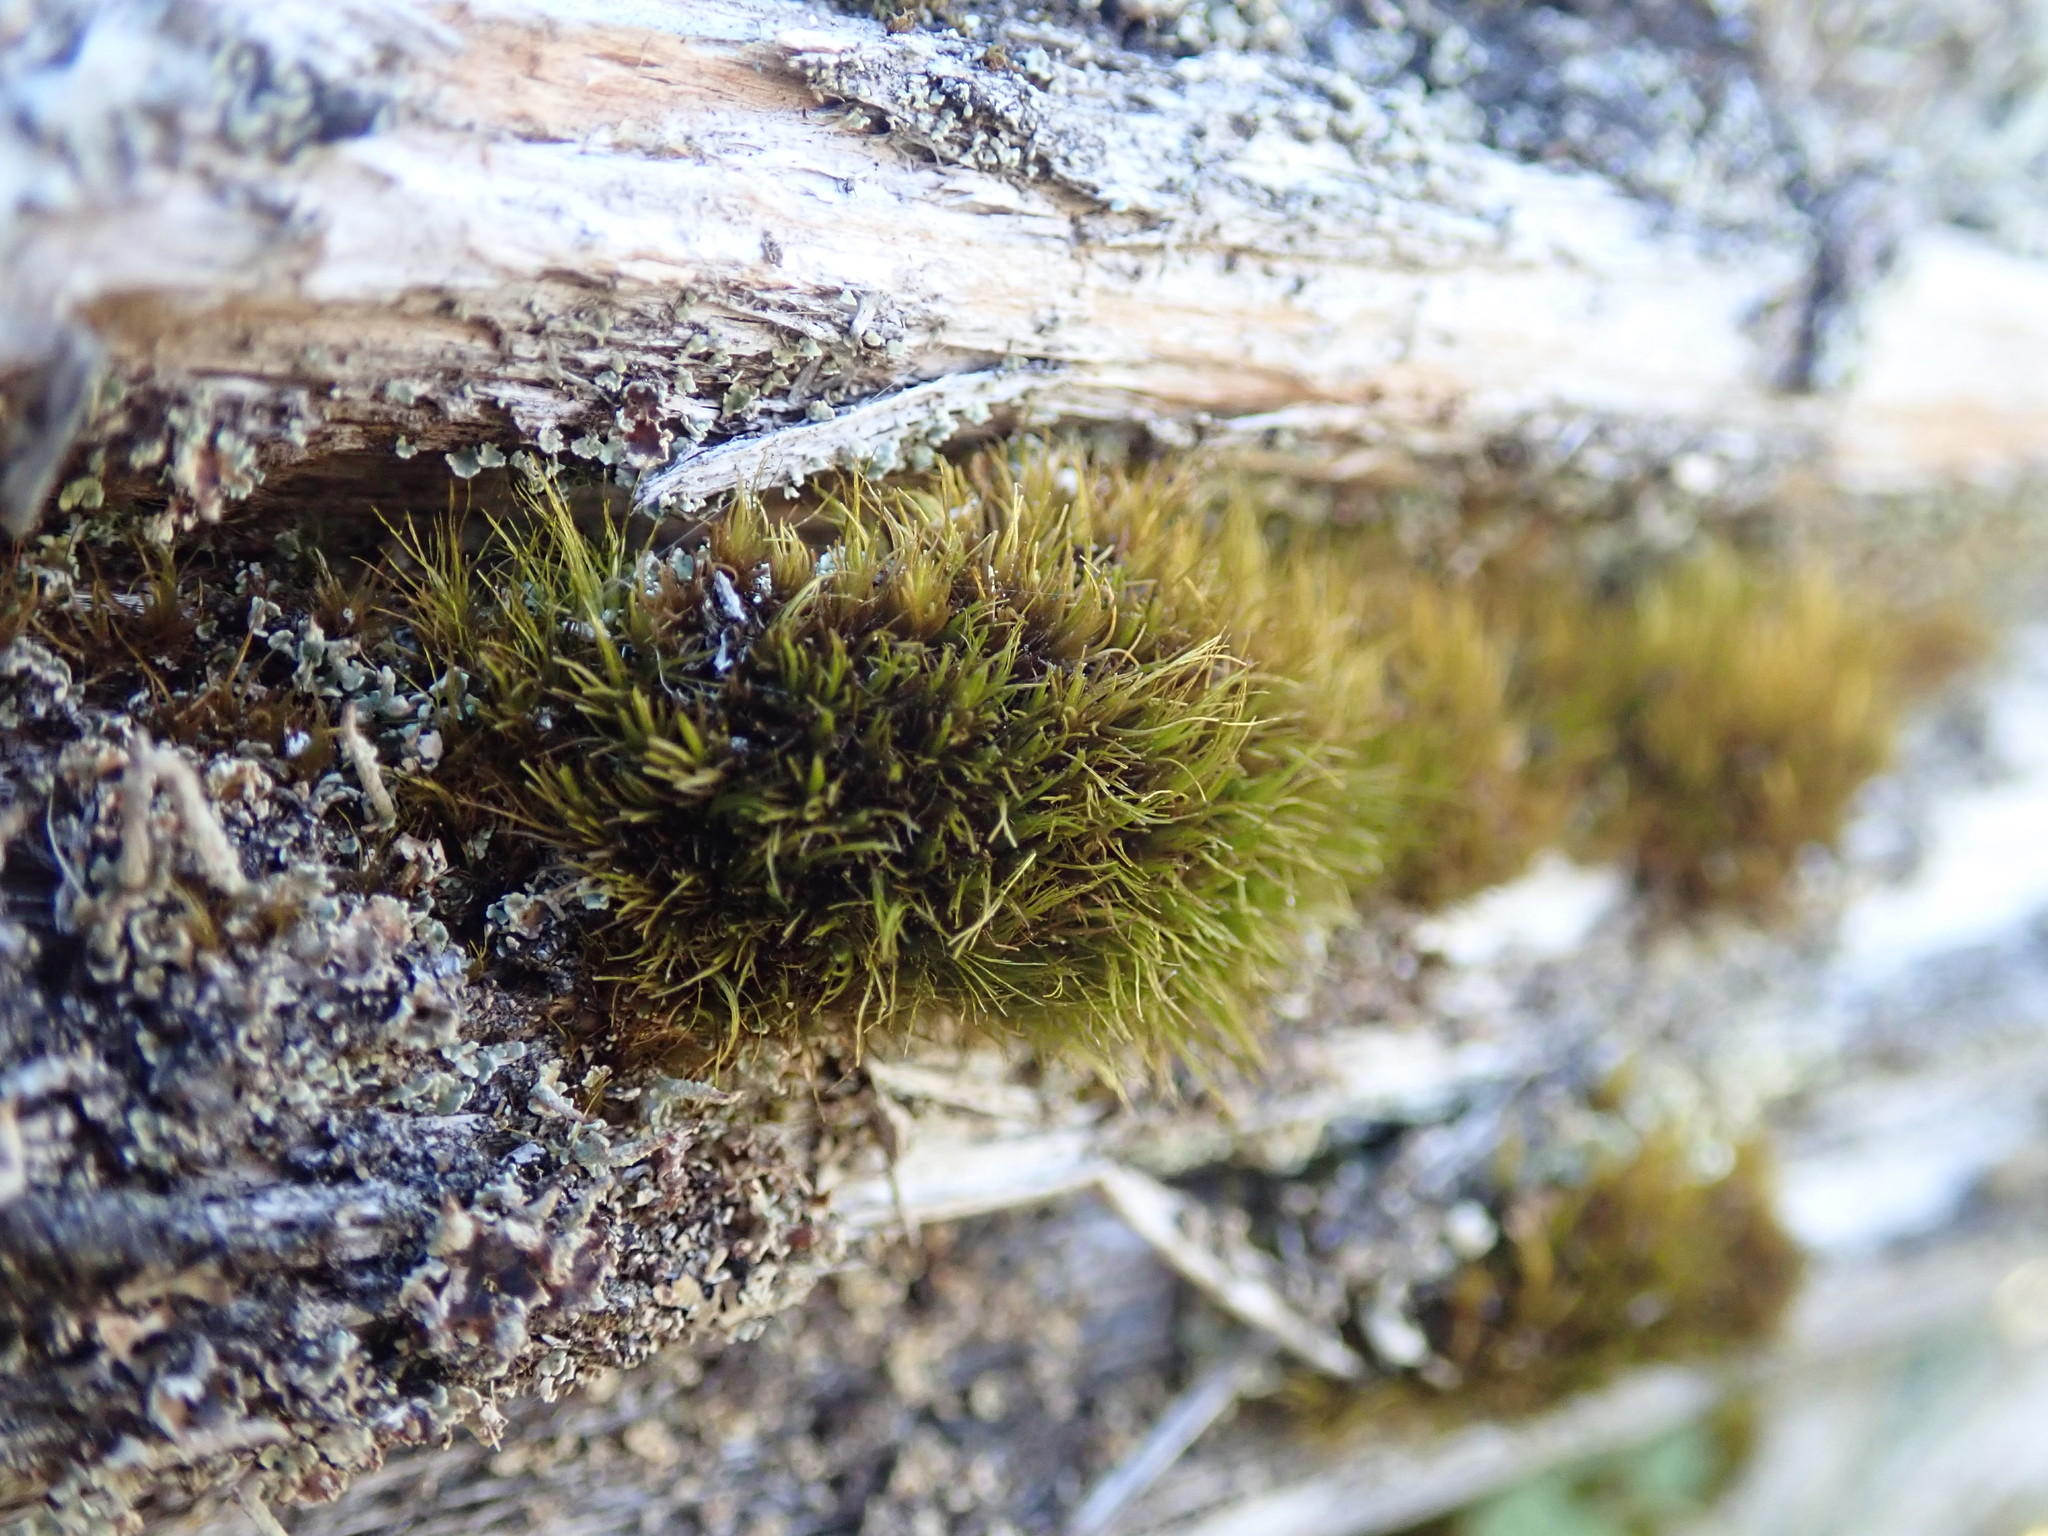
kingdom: Plantae
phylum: Bryophyta
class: Bryopsida
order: Dicranales
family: Dicranaceae
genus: Orthodicranum
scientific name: Orthodicranum tauricum
